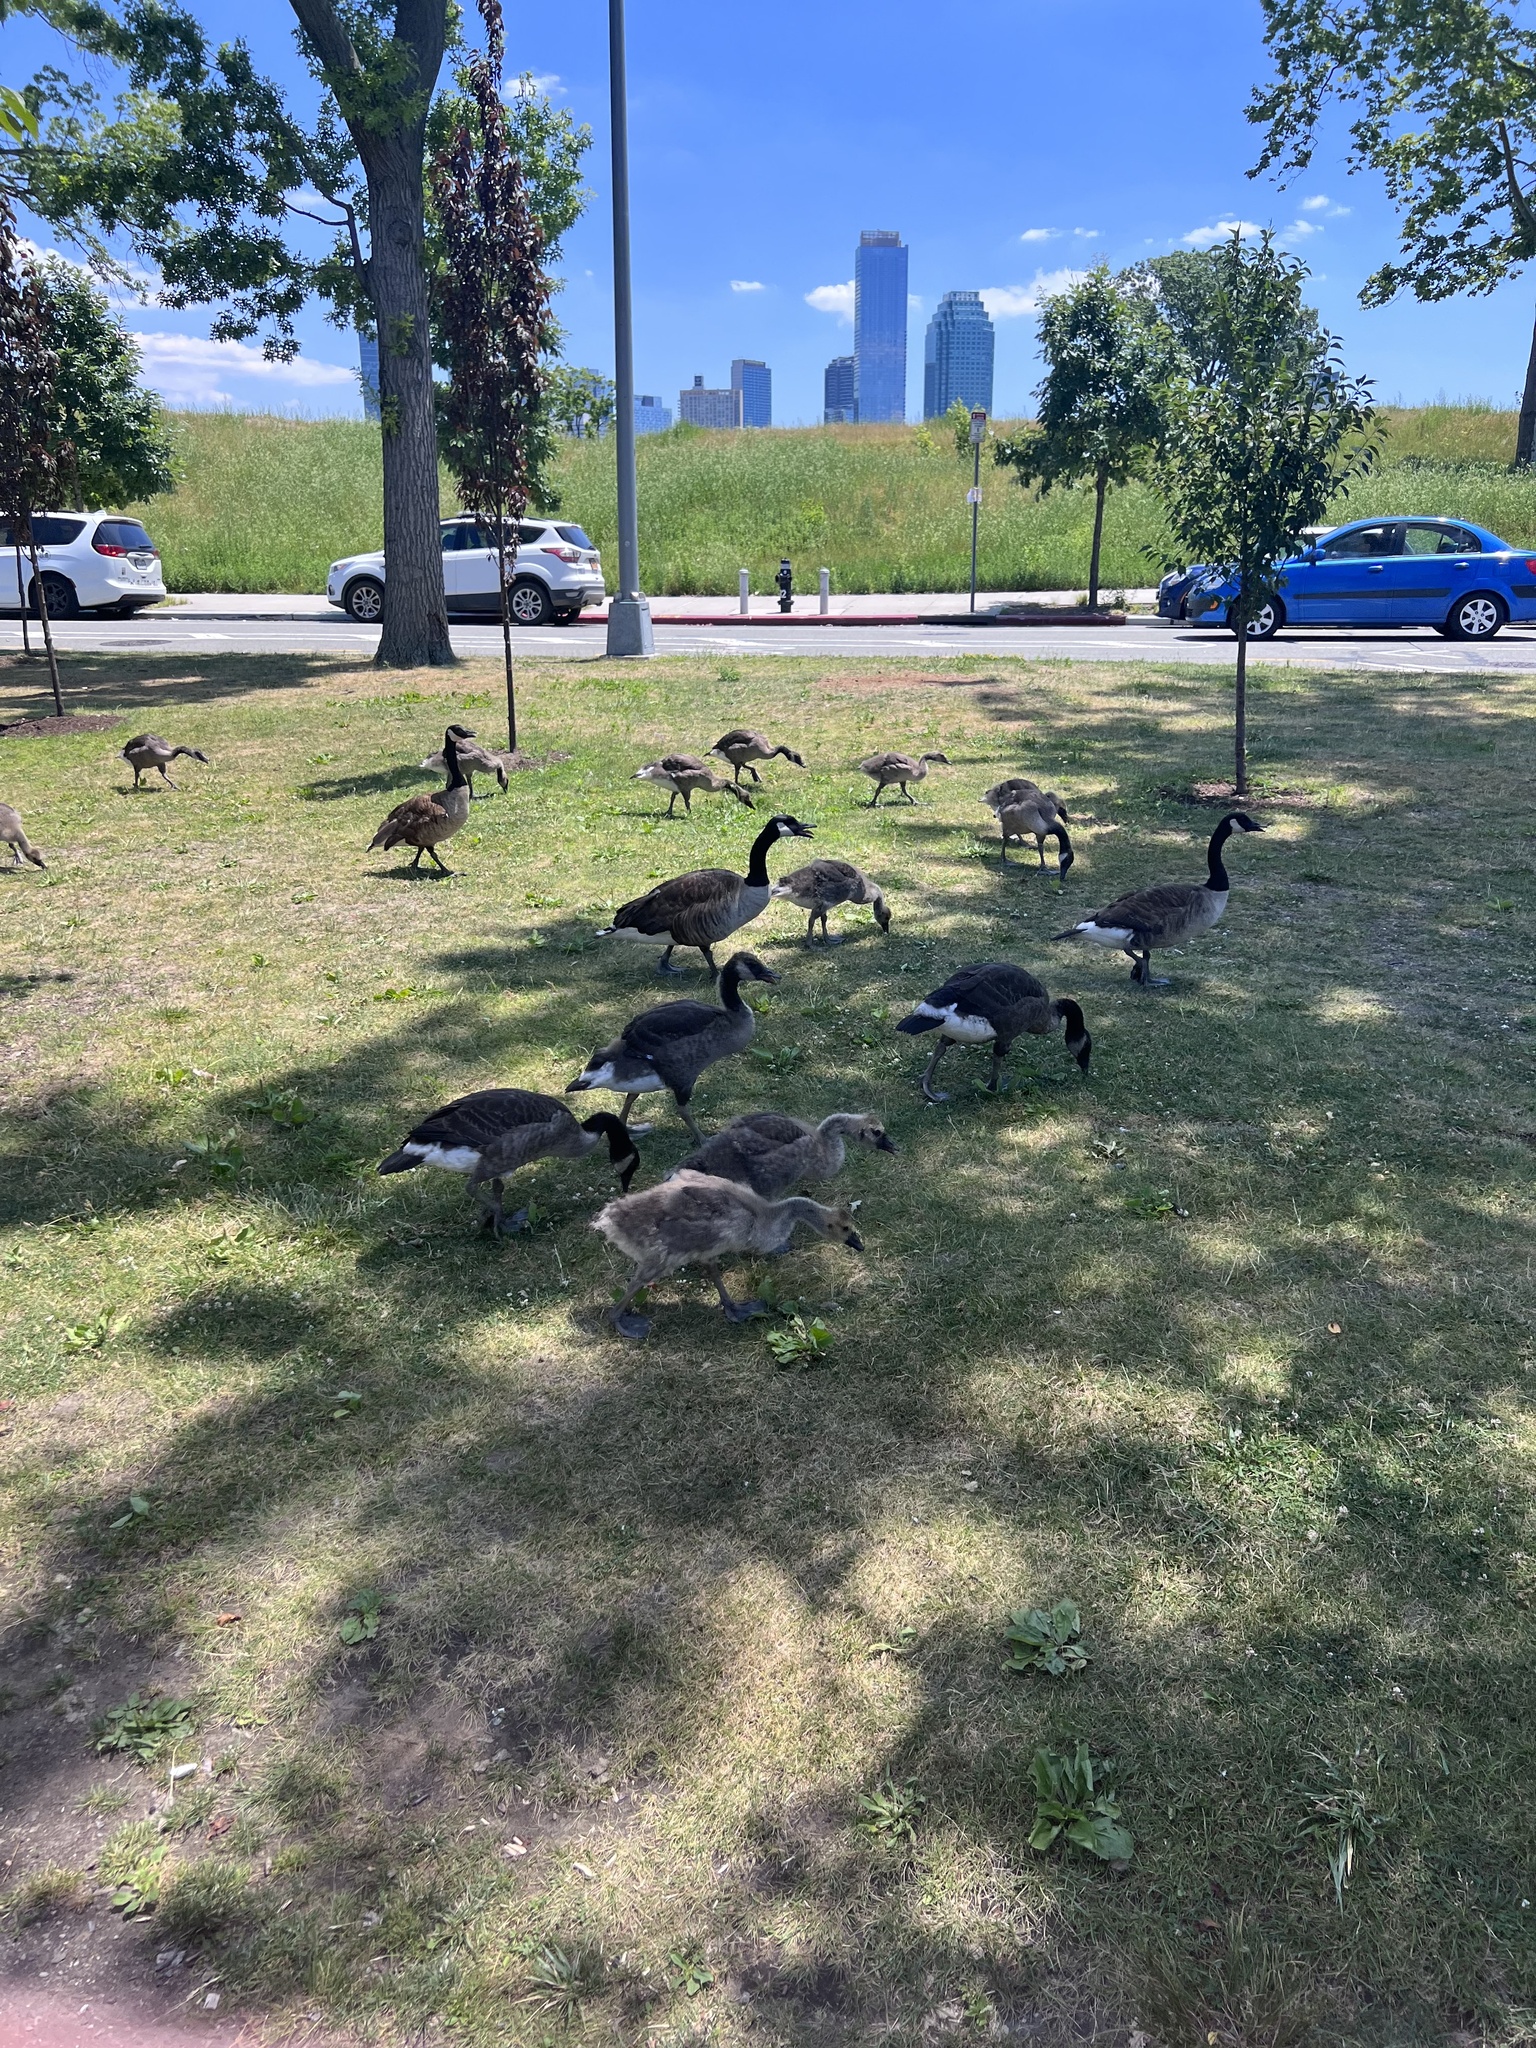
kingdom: Animalia
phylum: Chordata
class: Aves
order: Anseriformes
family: Anatidae
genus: Branta
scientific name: Branta canadensis
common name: Canada goose
